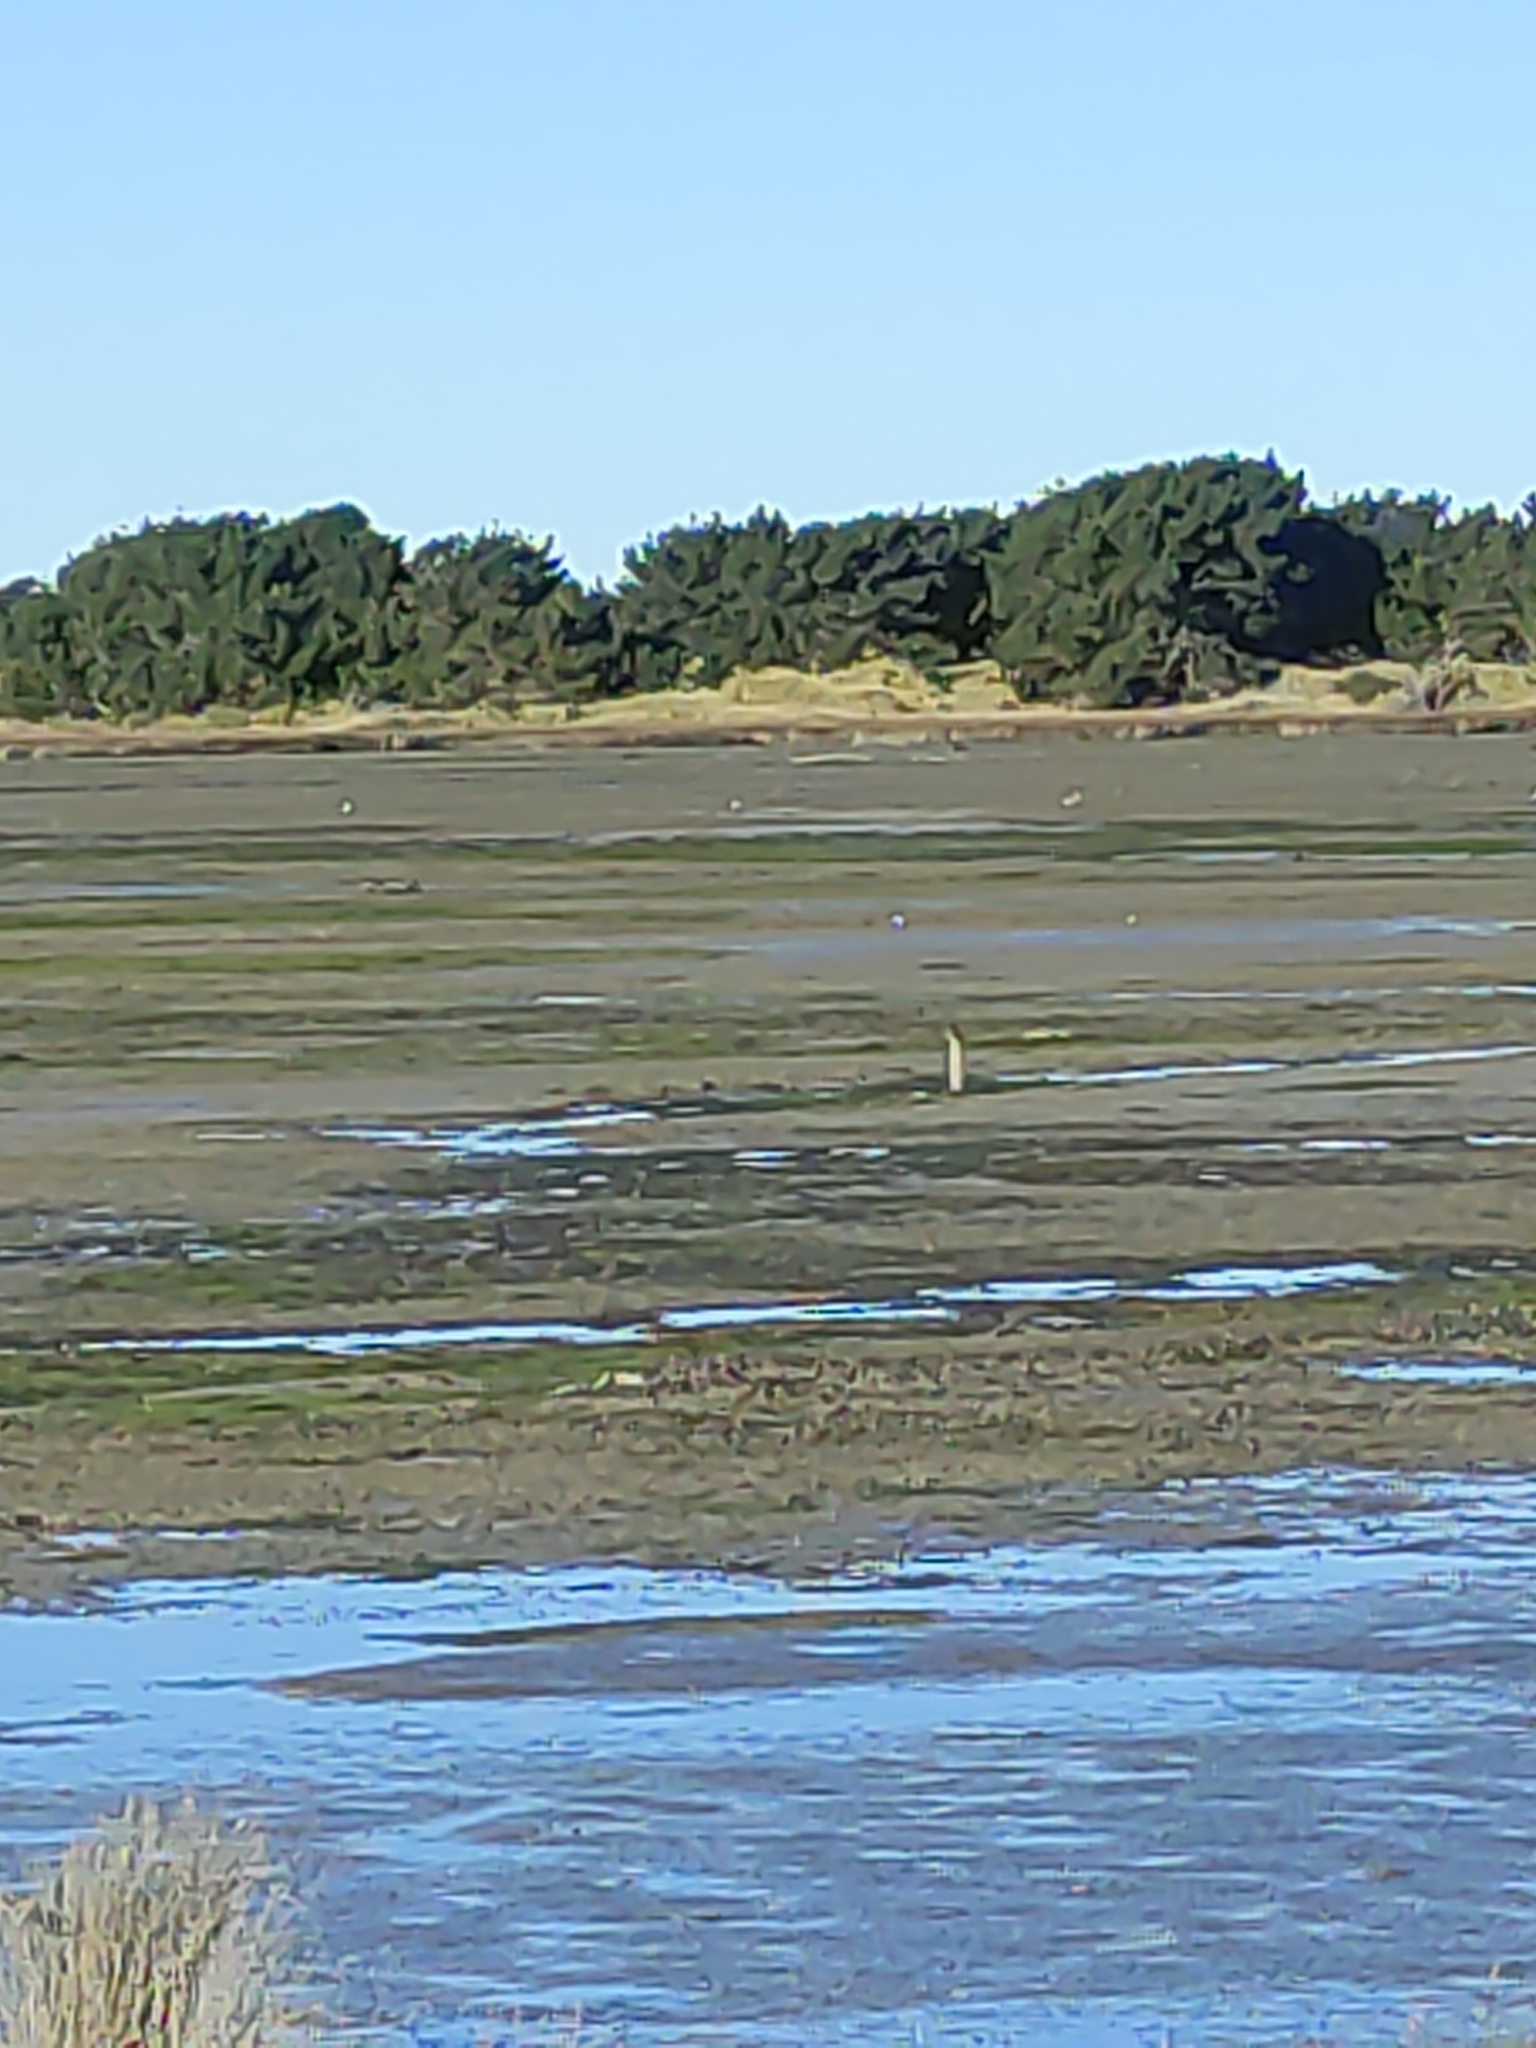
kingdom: Animalia
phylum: Chordata
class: Aves
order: Coraciiformes
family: Alcedinidae
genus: Todiramphus
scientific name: Todiramphus sanctus
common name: Sacred kingfisher
